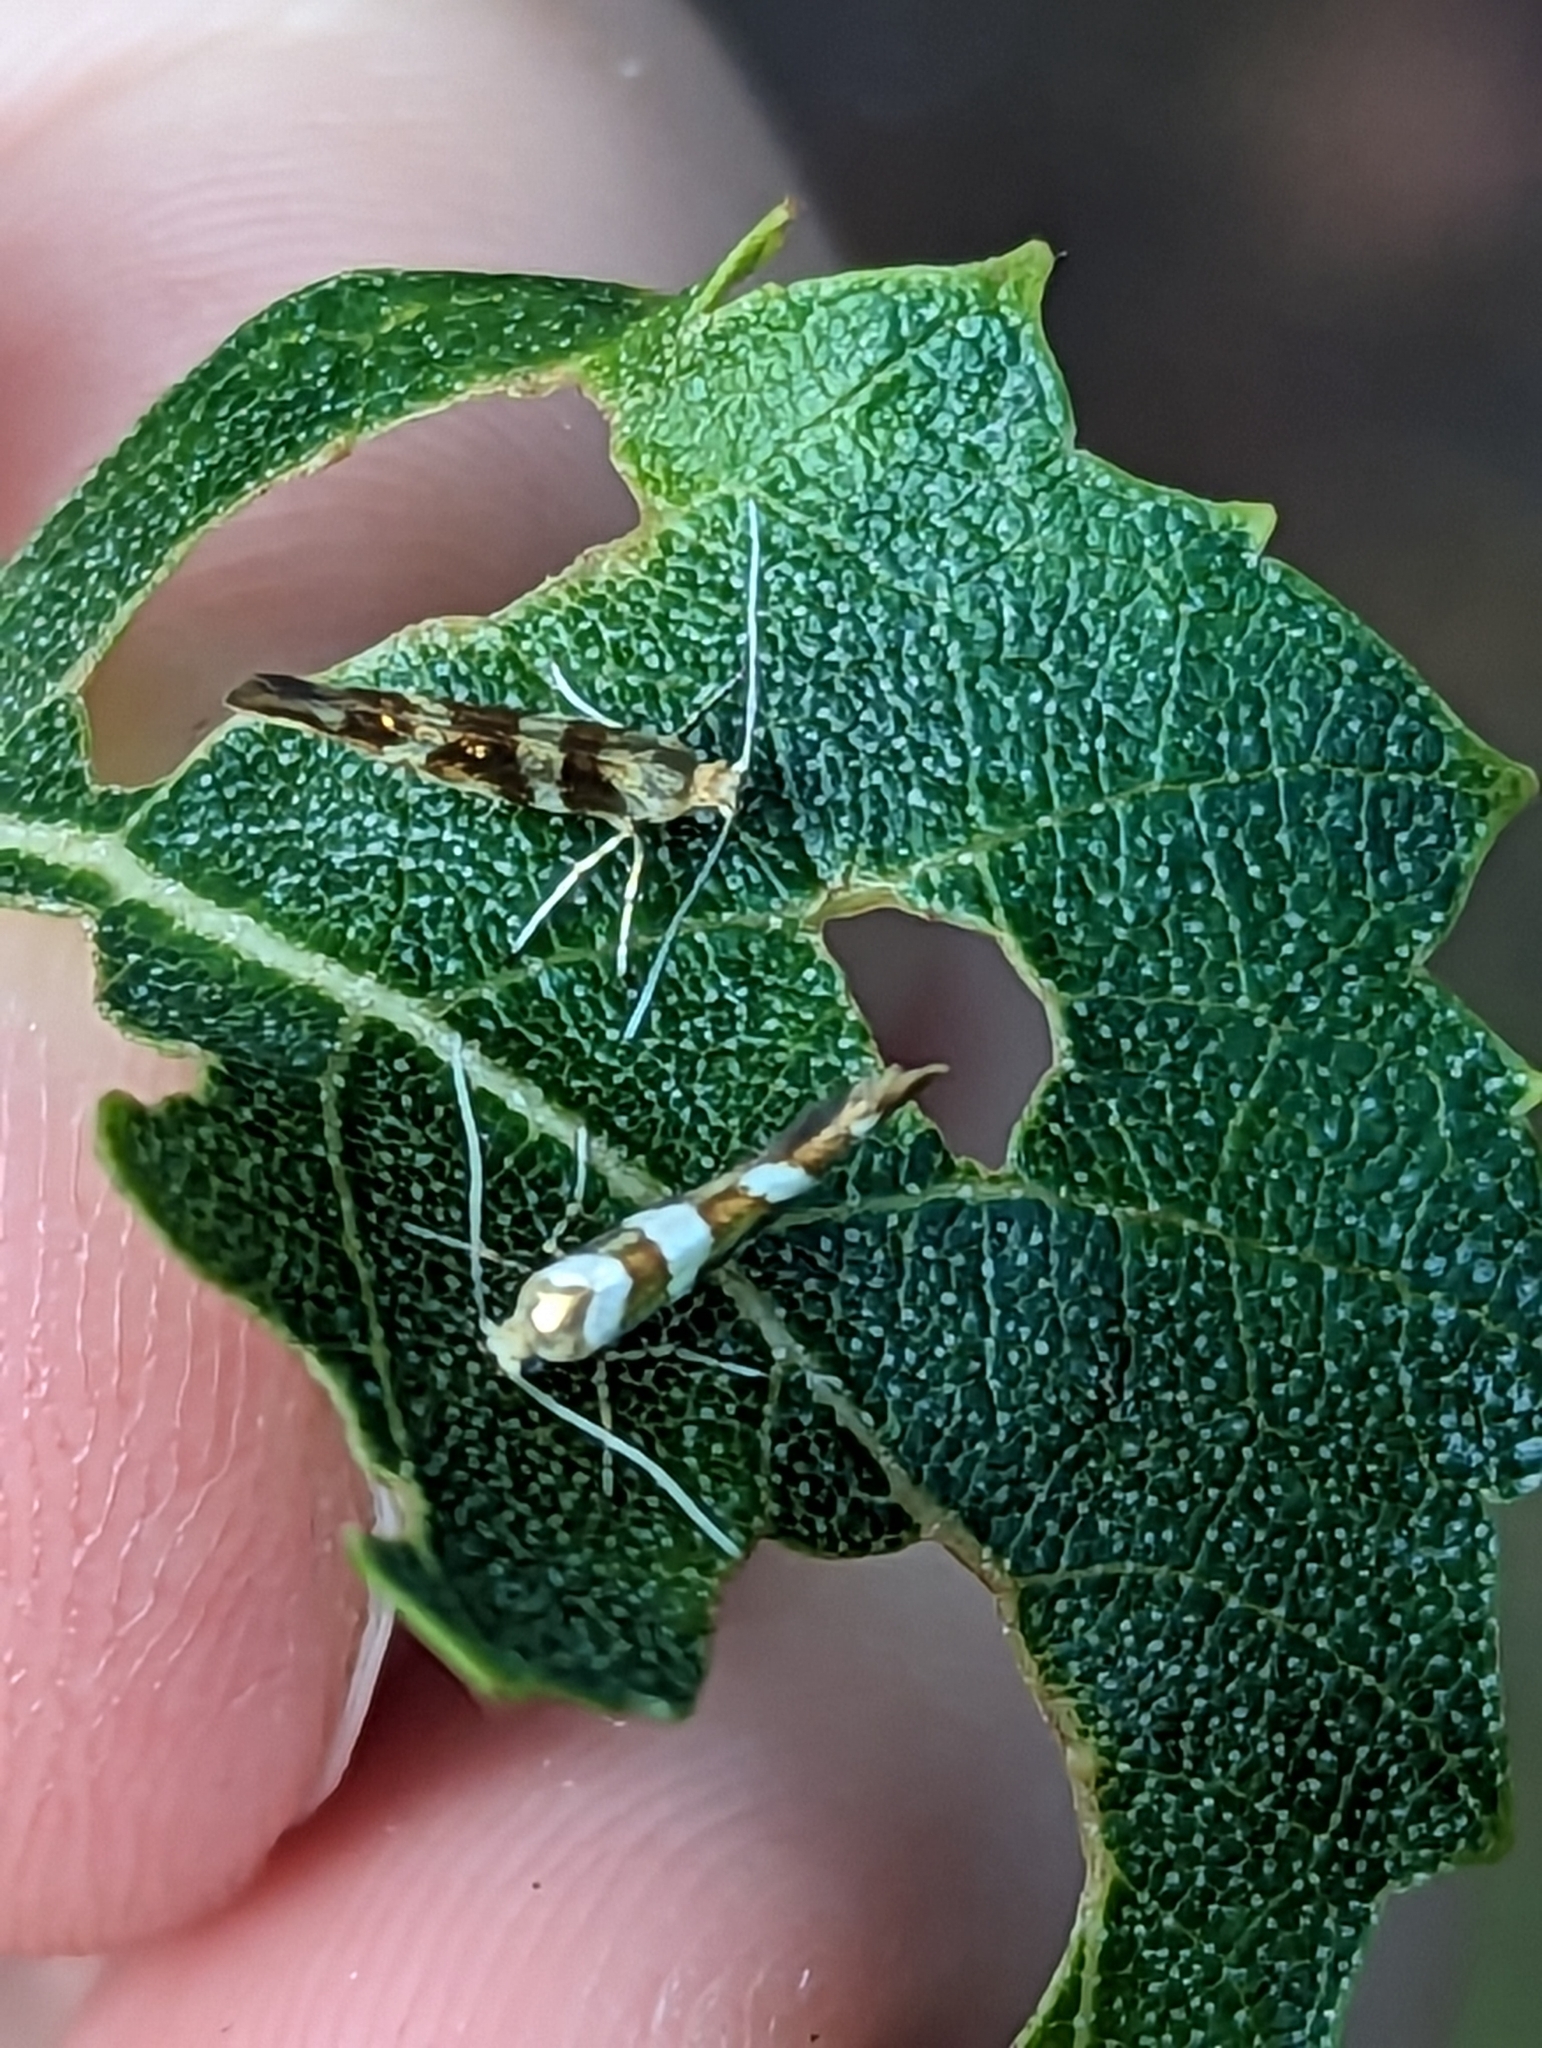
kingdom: Animalia
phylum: Arthropoda
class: Insecta
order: Lepidoptera
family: Argyresthiidae
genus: Argyresthia
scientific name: Argyresthia goedartella
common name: Golden argent
